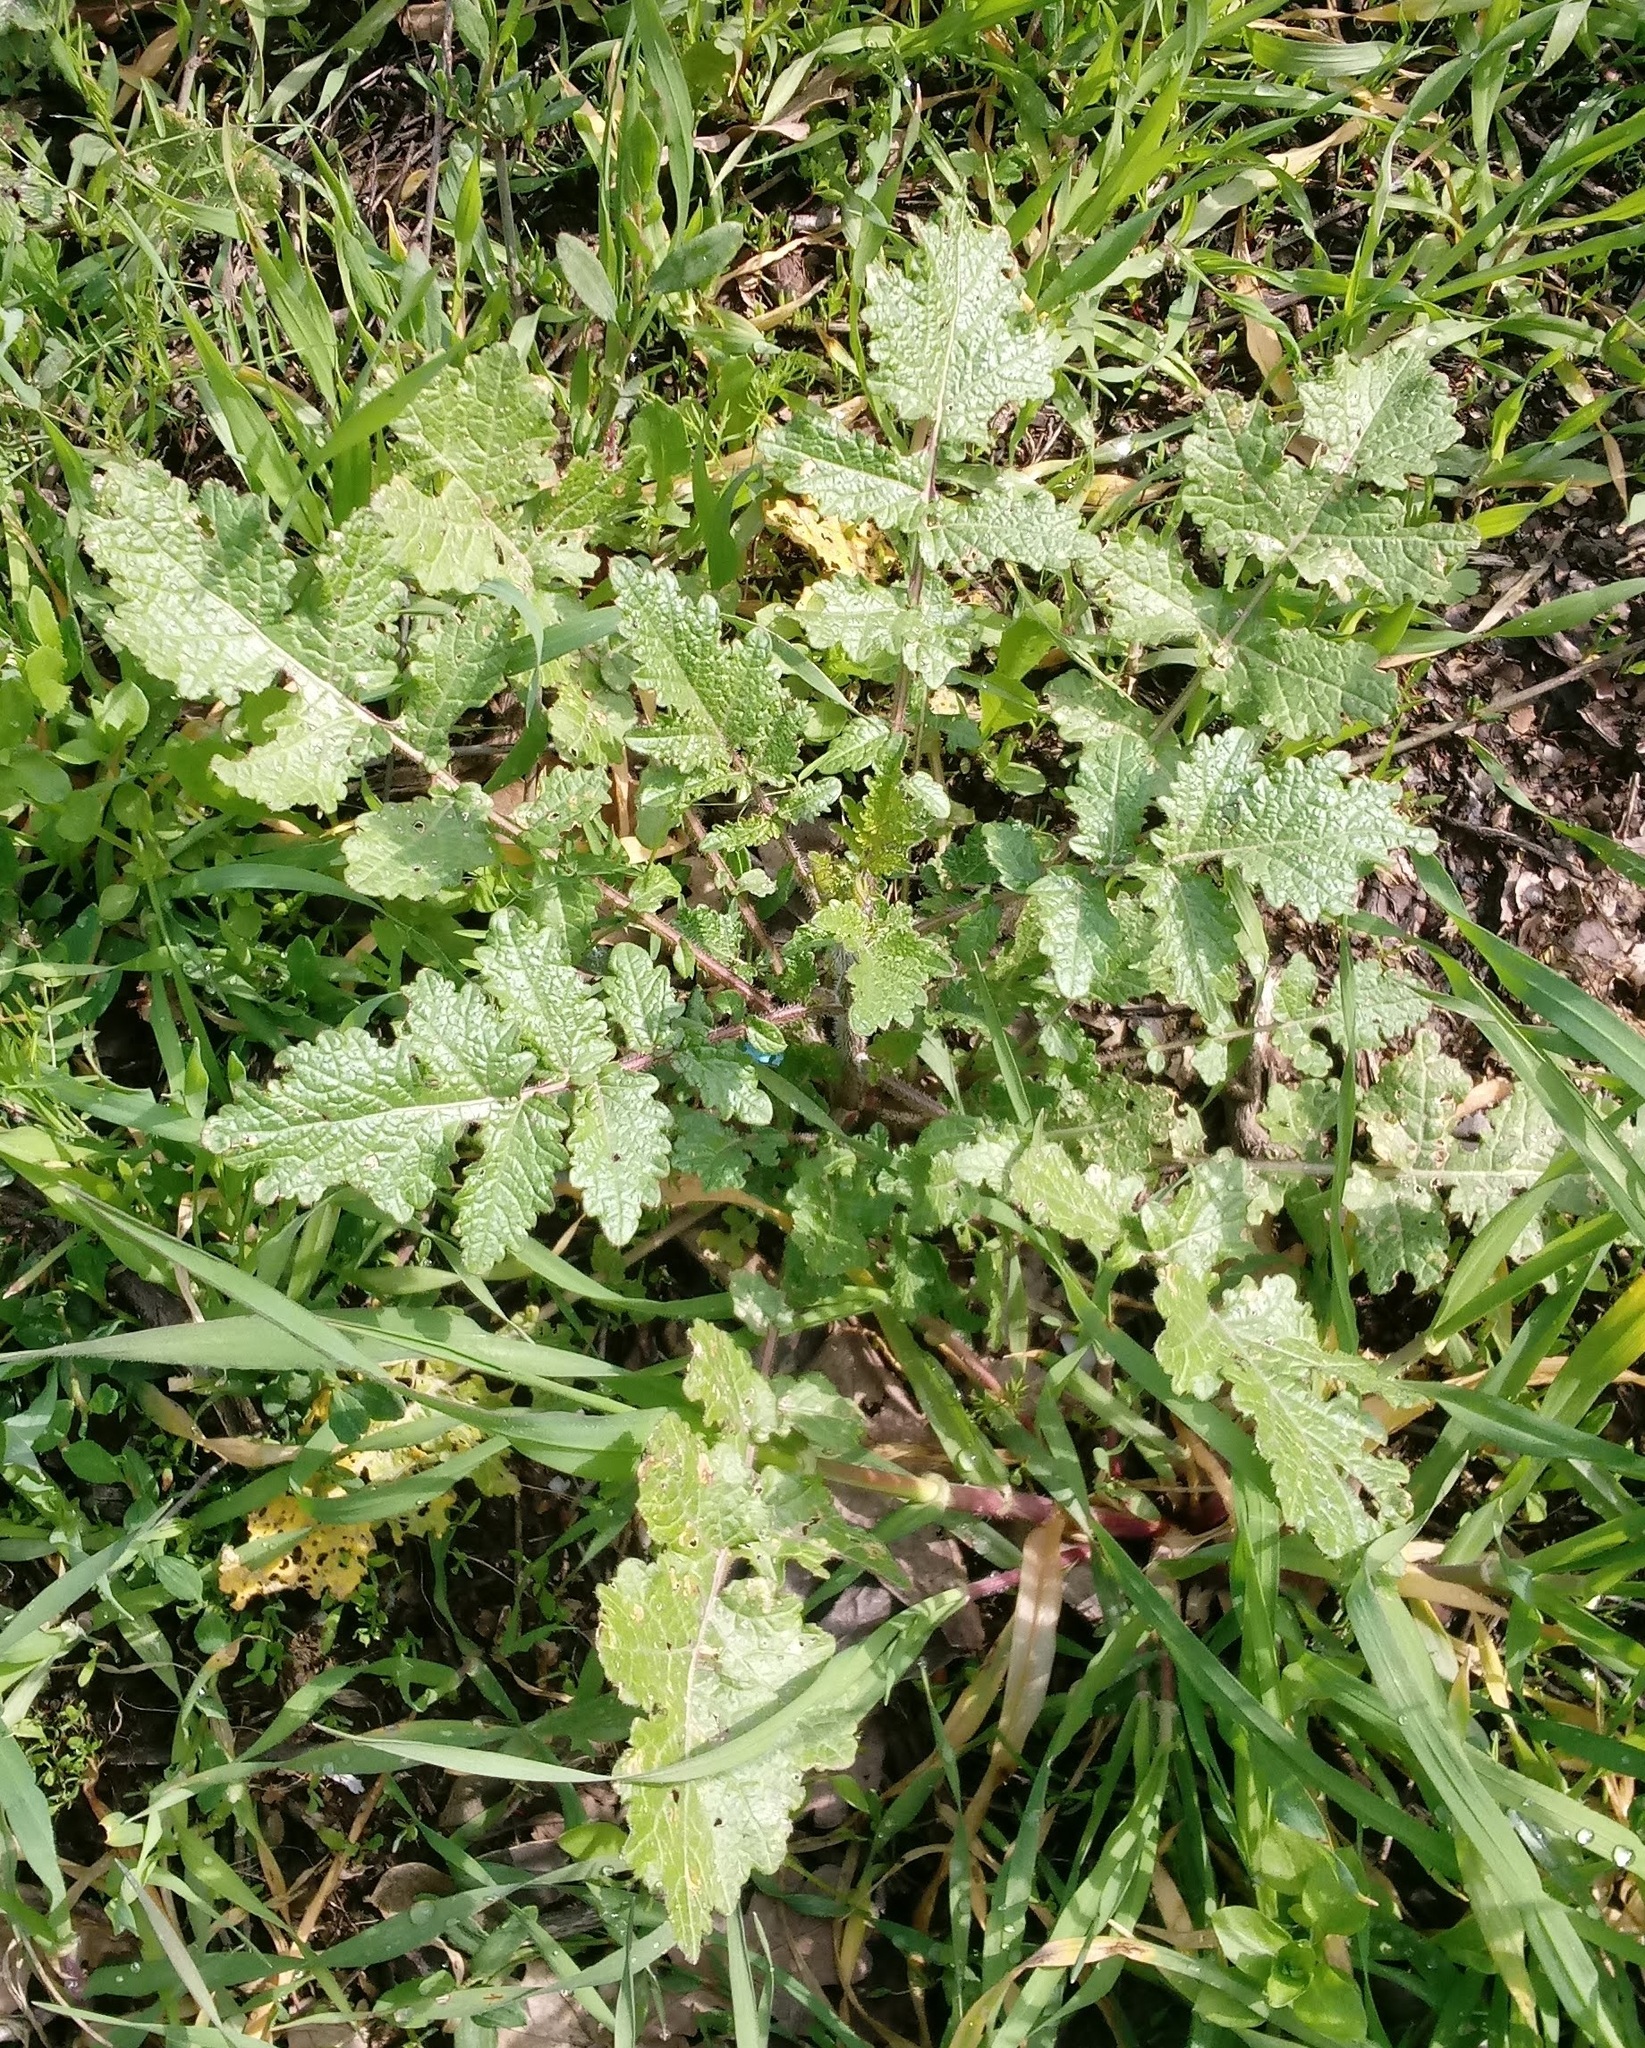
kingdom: Plantae
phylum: Tracheophyta
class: Magnoliopsida
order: Brassicales
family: Brassicaceae
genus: Sinapis
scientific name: Sinapis
